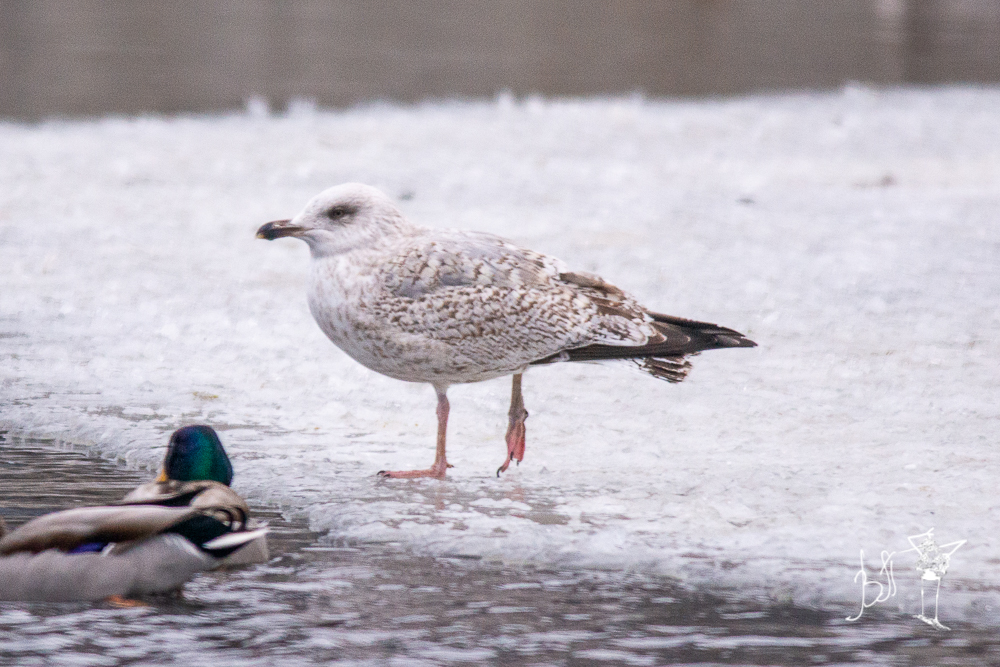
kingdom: Animalia
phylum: Chordata
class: Aves
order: Charadriiformes
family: Laridae
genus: Larus
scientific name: Larus argentatus
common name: Herring gull
